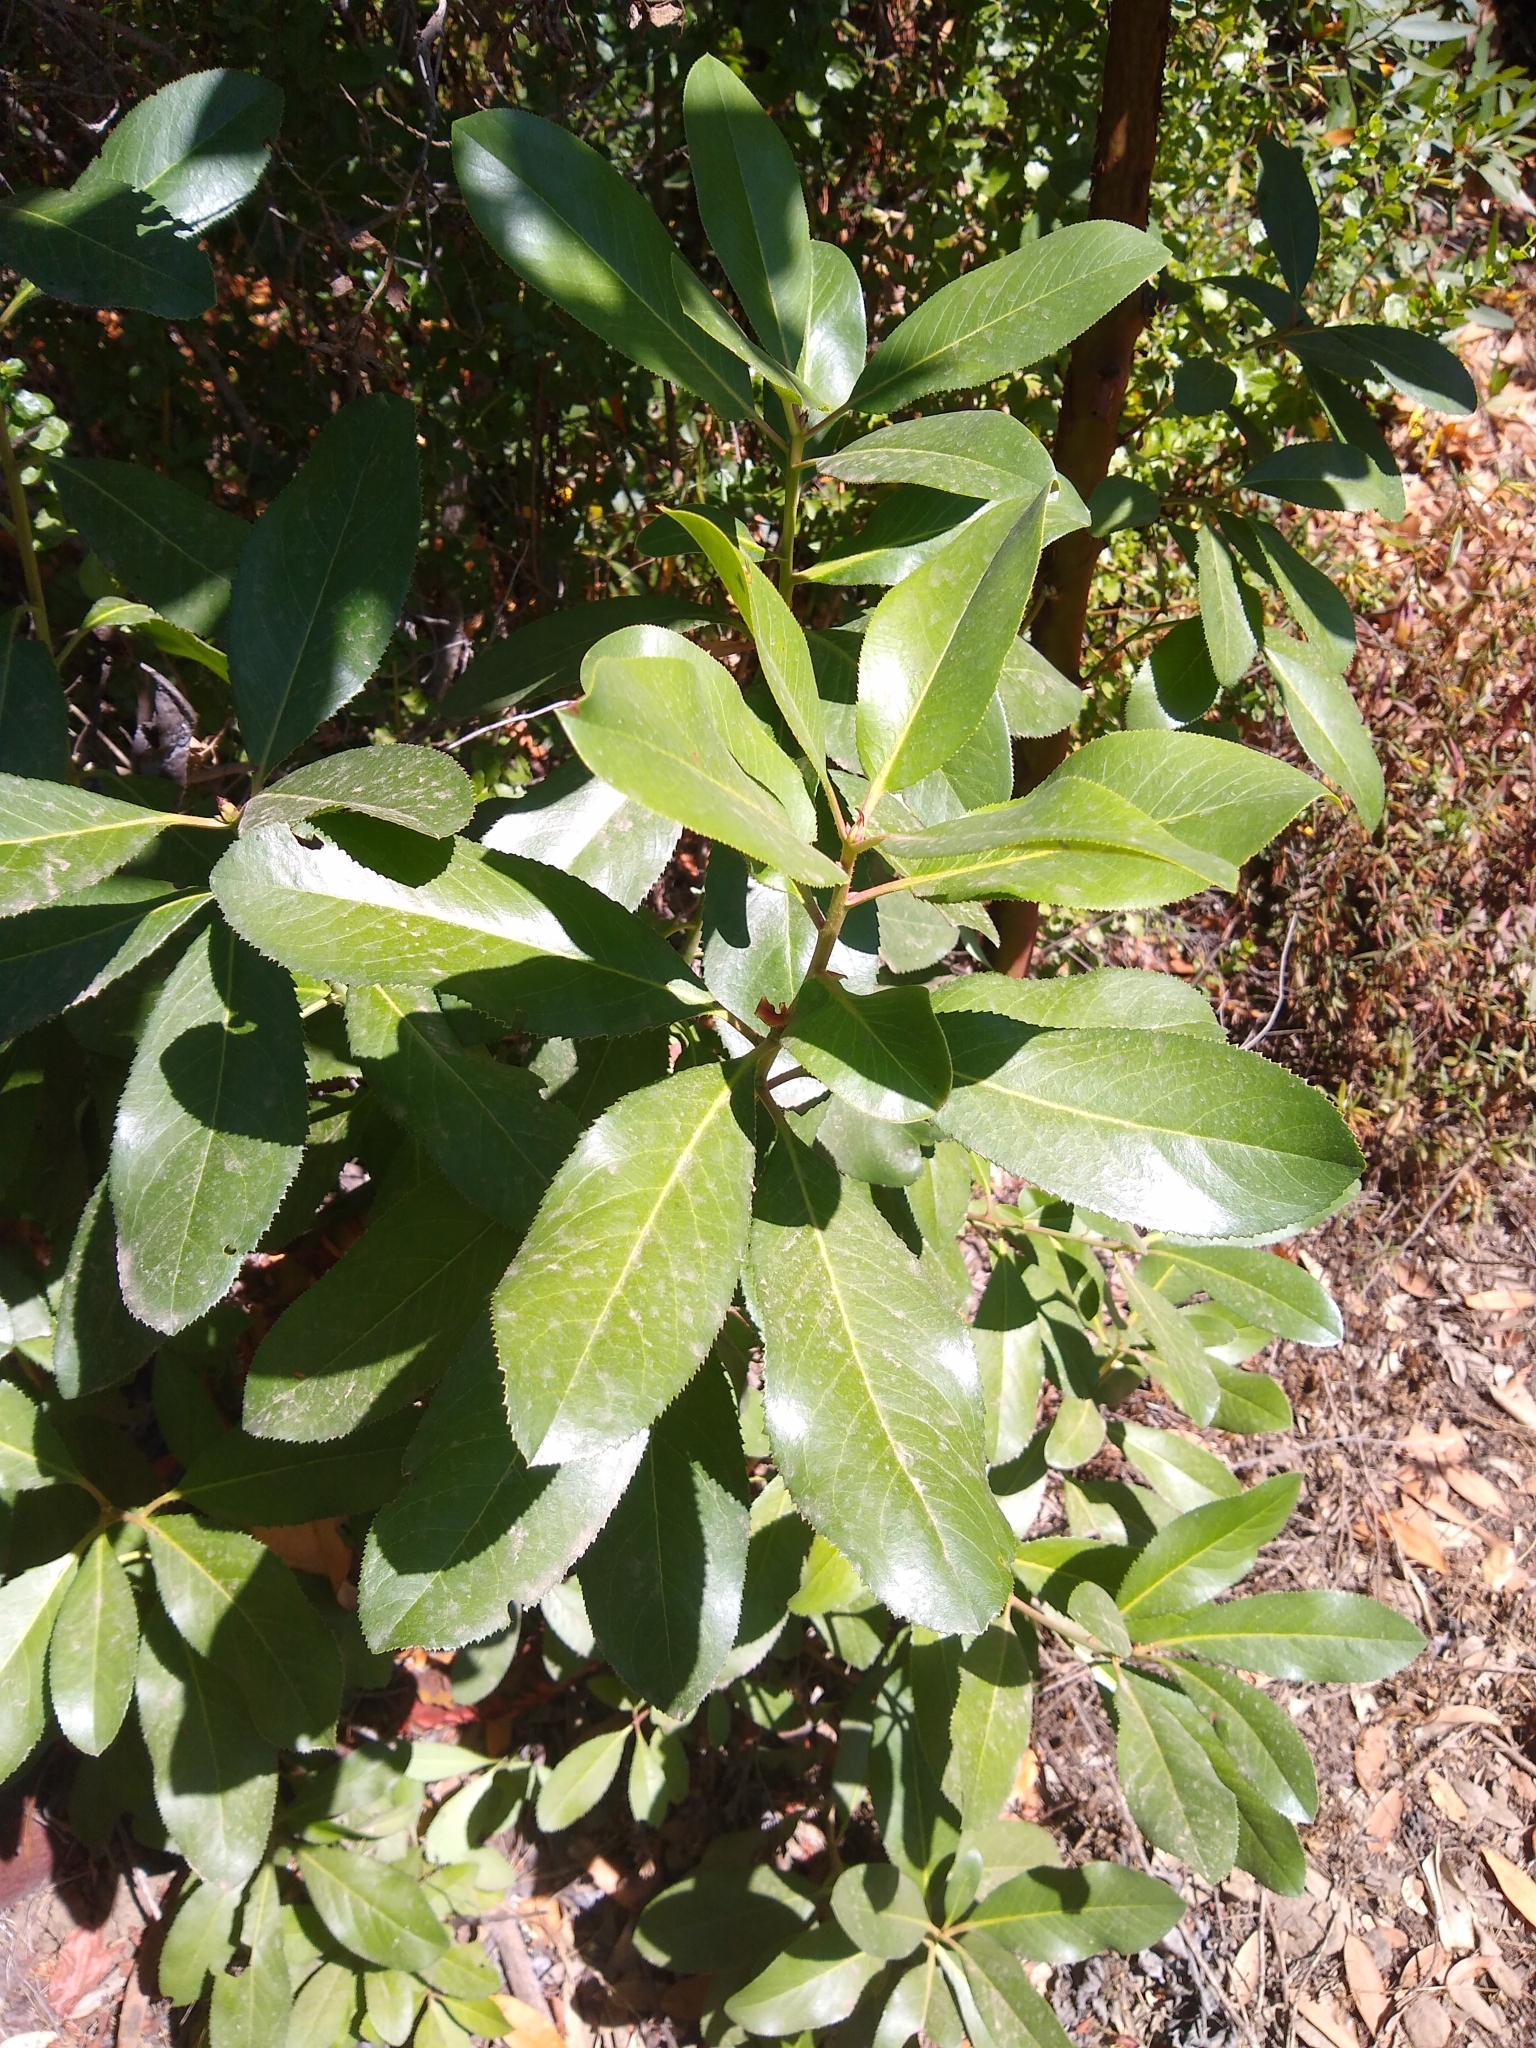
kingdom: Plantae
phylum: Tracheophyta
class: Magnoliopsida
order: Ericales
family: Ericaceae
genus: Arbutus
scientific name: Arbutus menziesii
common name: Pacific madrone
